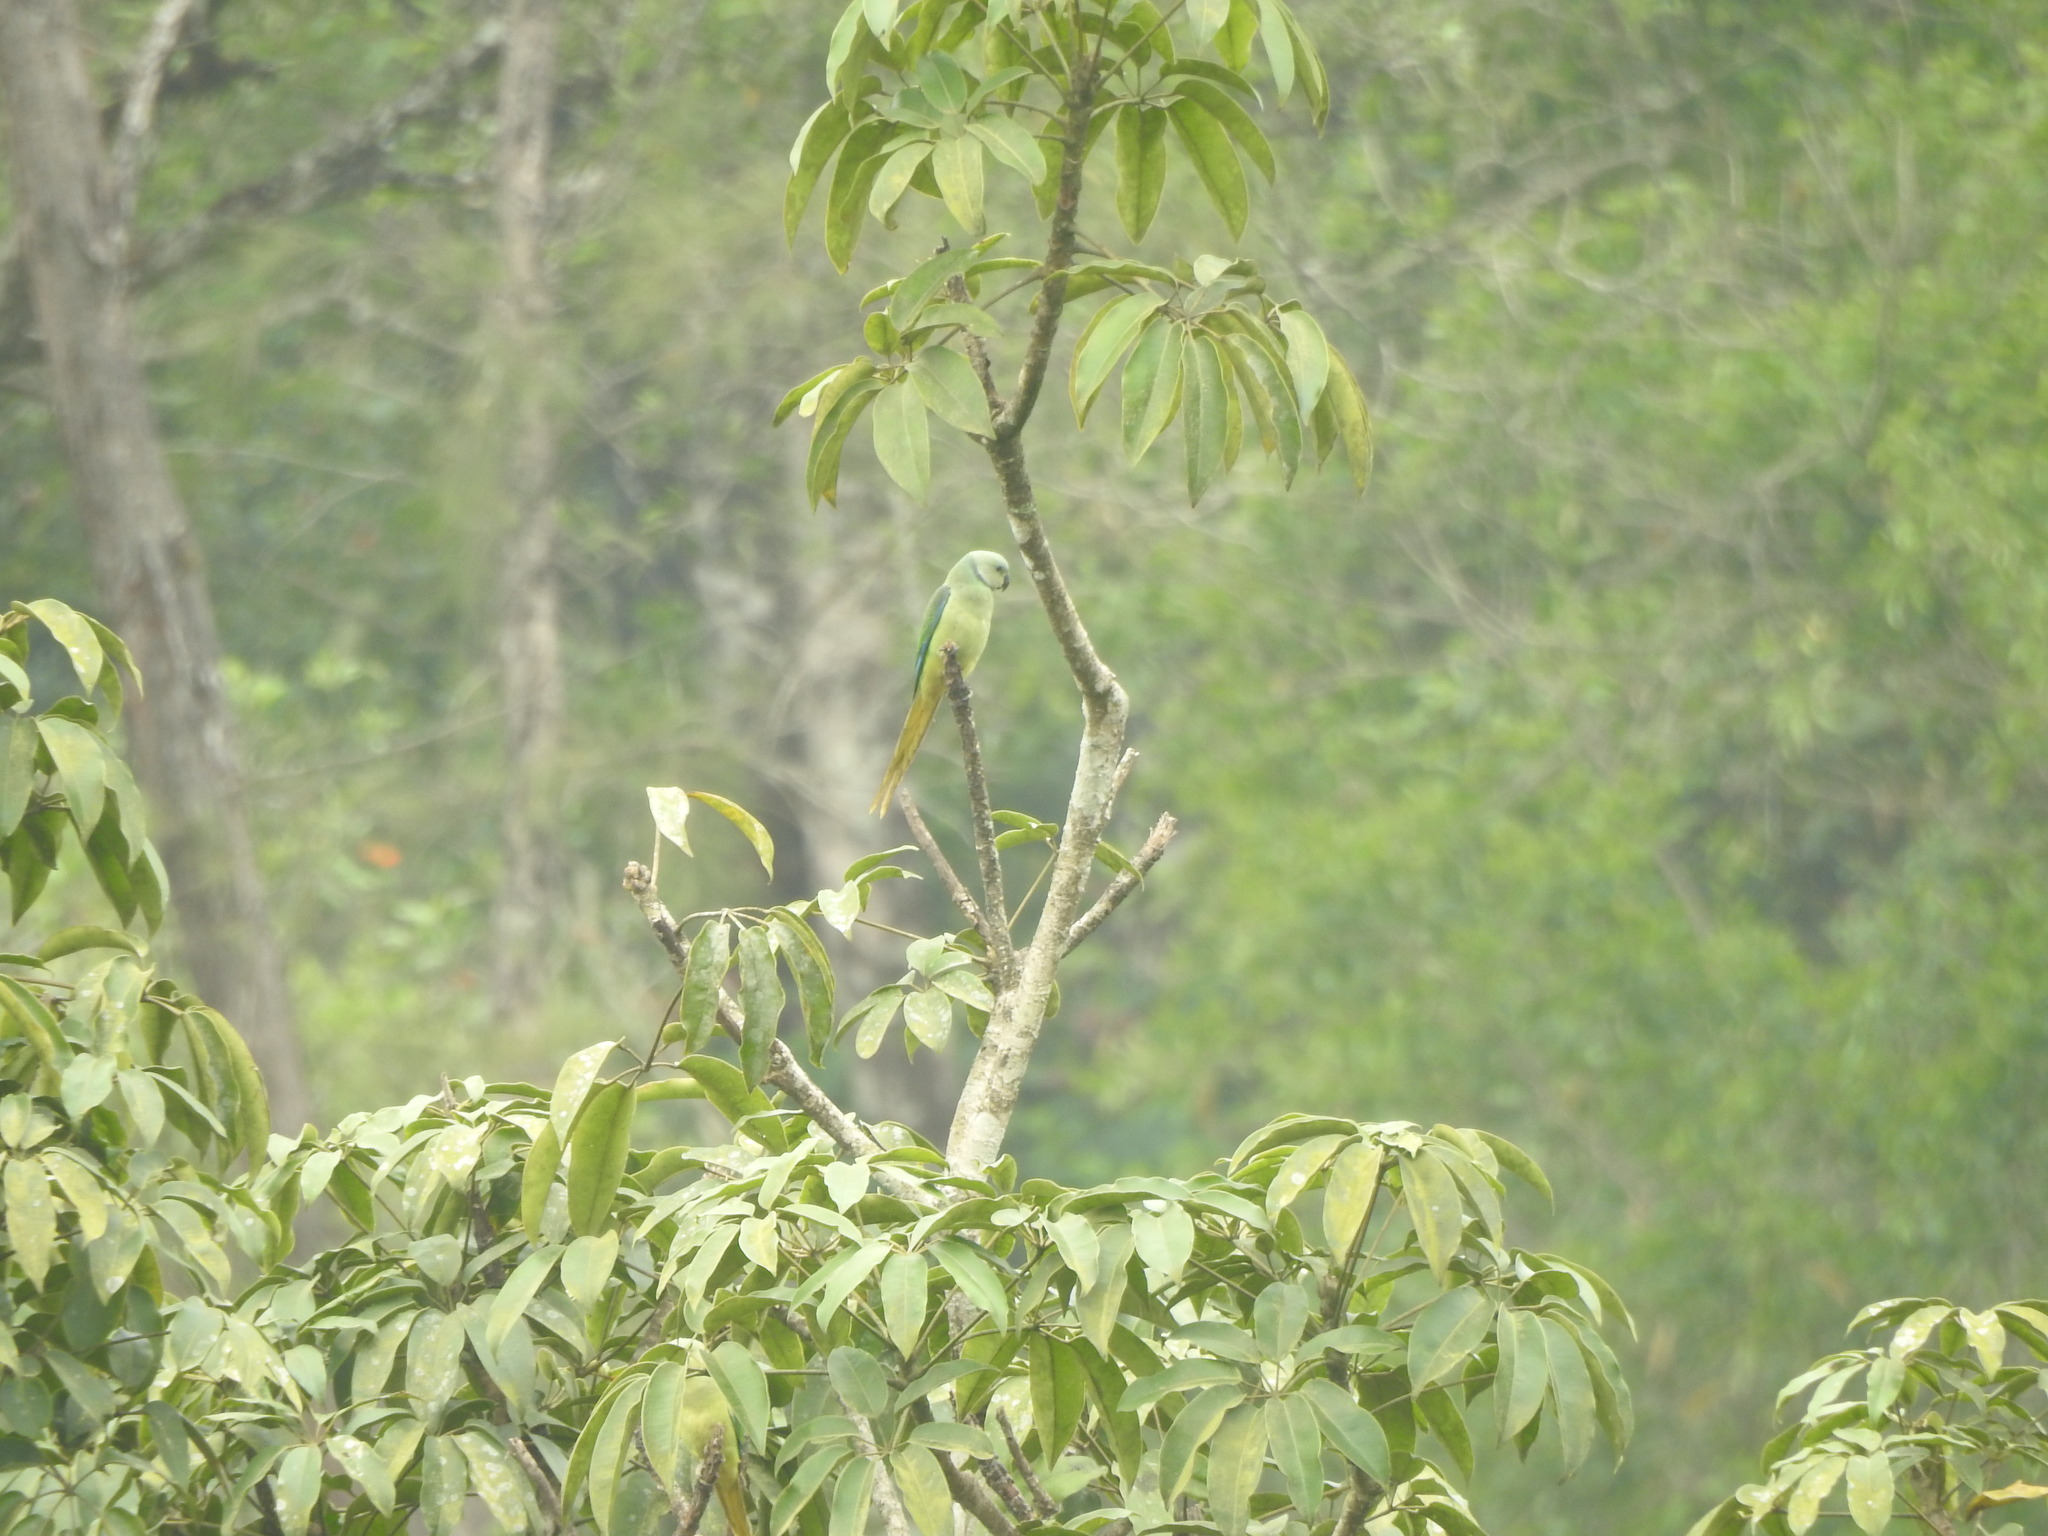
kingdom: Animalia
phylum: Chordata
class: Aves
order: Psittaciformes
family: Psittacidae
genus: Psittacula
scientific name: Psittacula columboides
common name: Blue-winged parakeet
